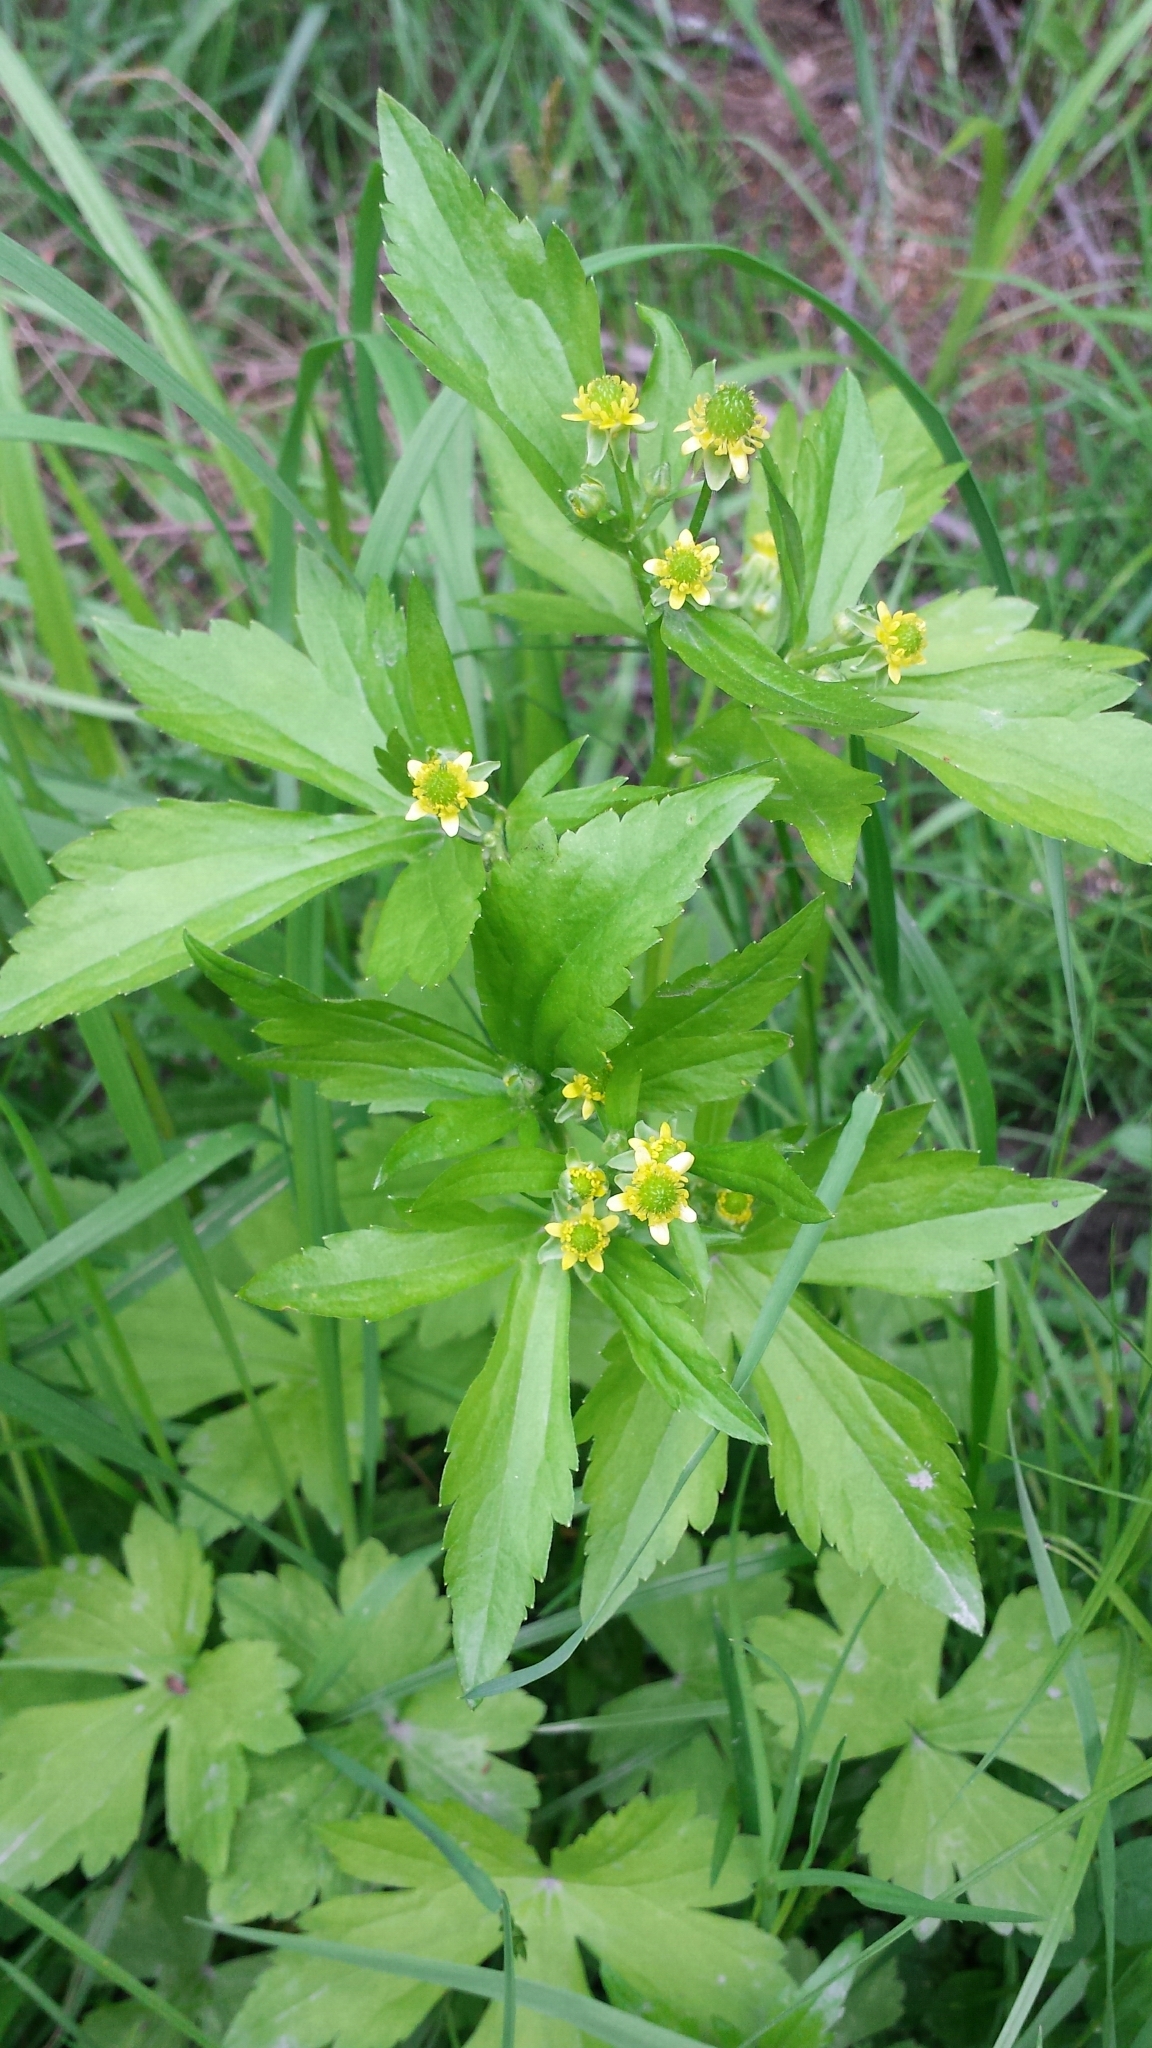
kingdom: Plantae
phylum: Tracheophyta
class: Magnoliopsida
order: Ranunculales
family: Ranunculaceae
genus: Ranunculus
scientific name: Ranunculus recurvatus
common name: Blisterwort
